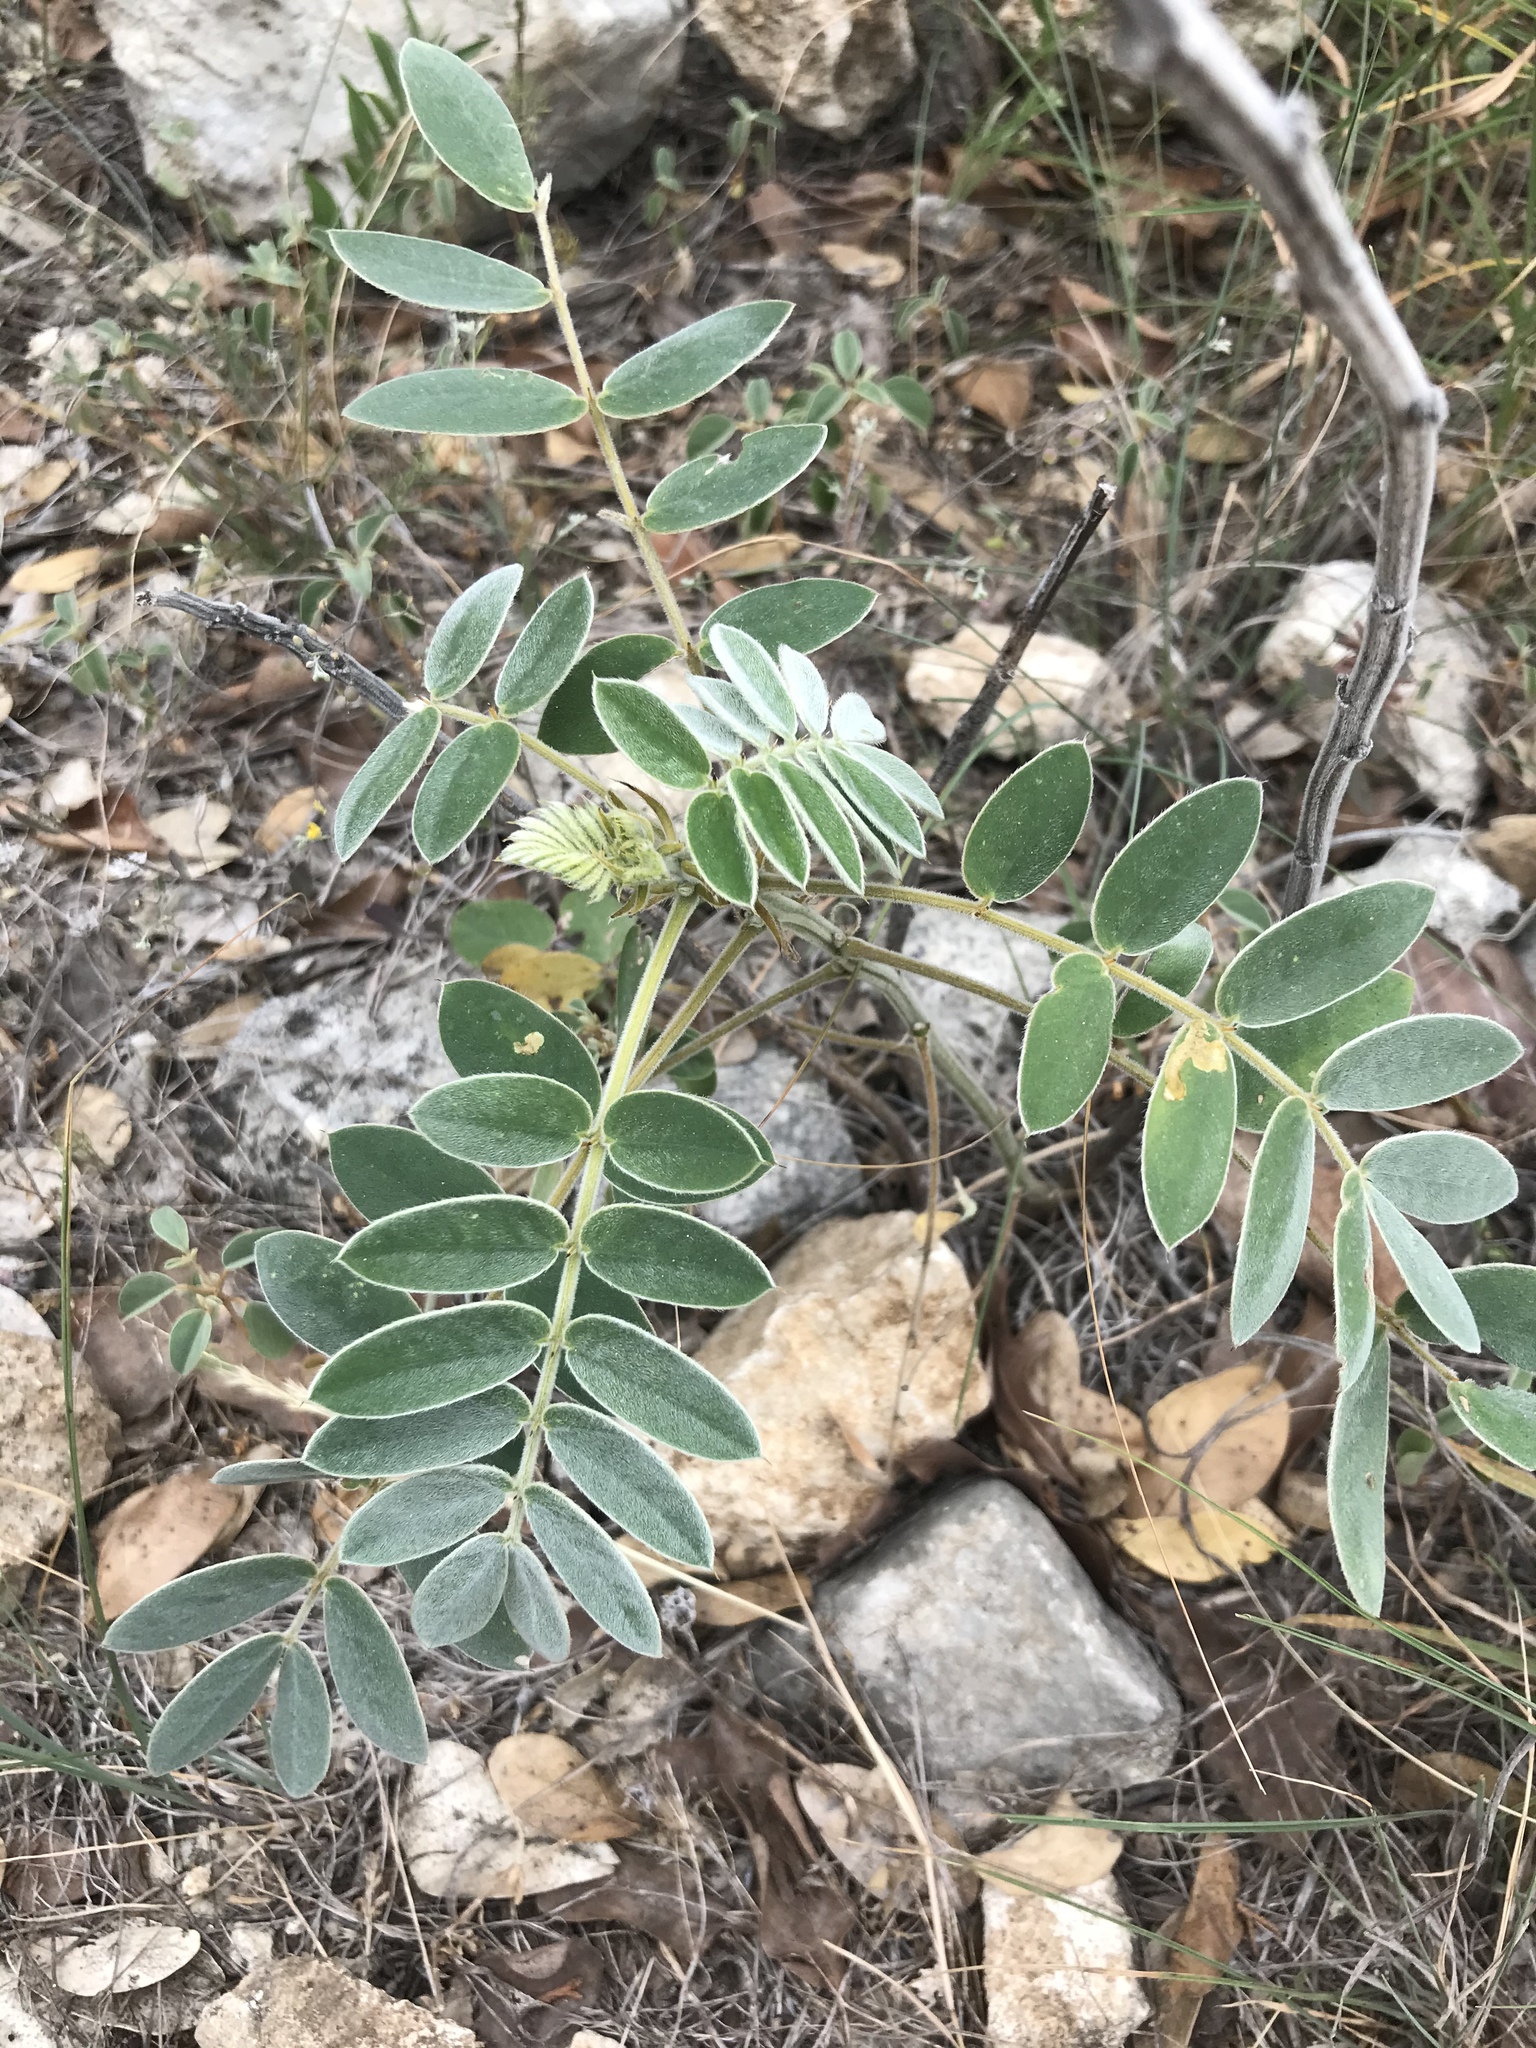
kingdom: Plantae
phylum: Tracheophyta
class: Magnoliopsida
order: Fabales
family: Fabaceae
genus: Senna
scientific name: Senna lindheimeriana
